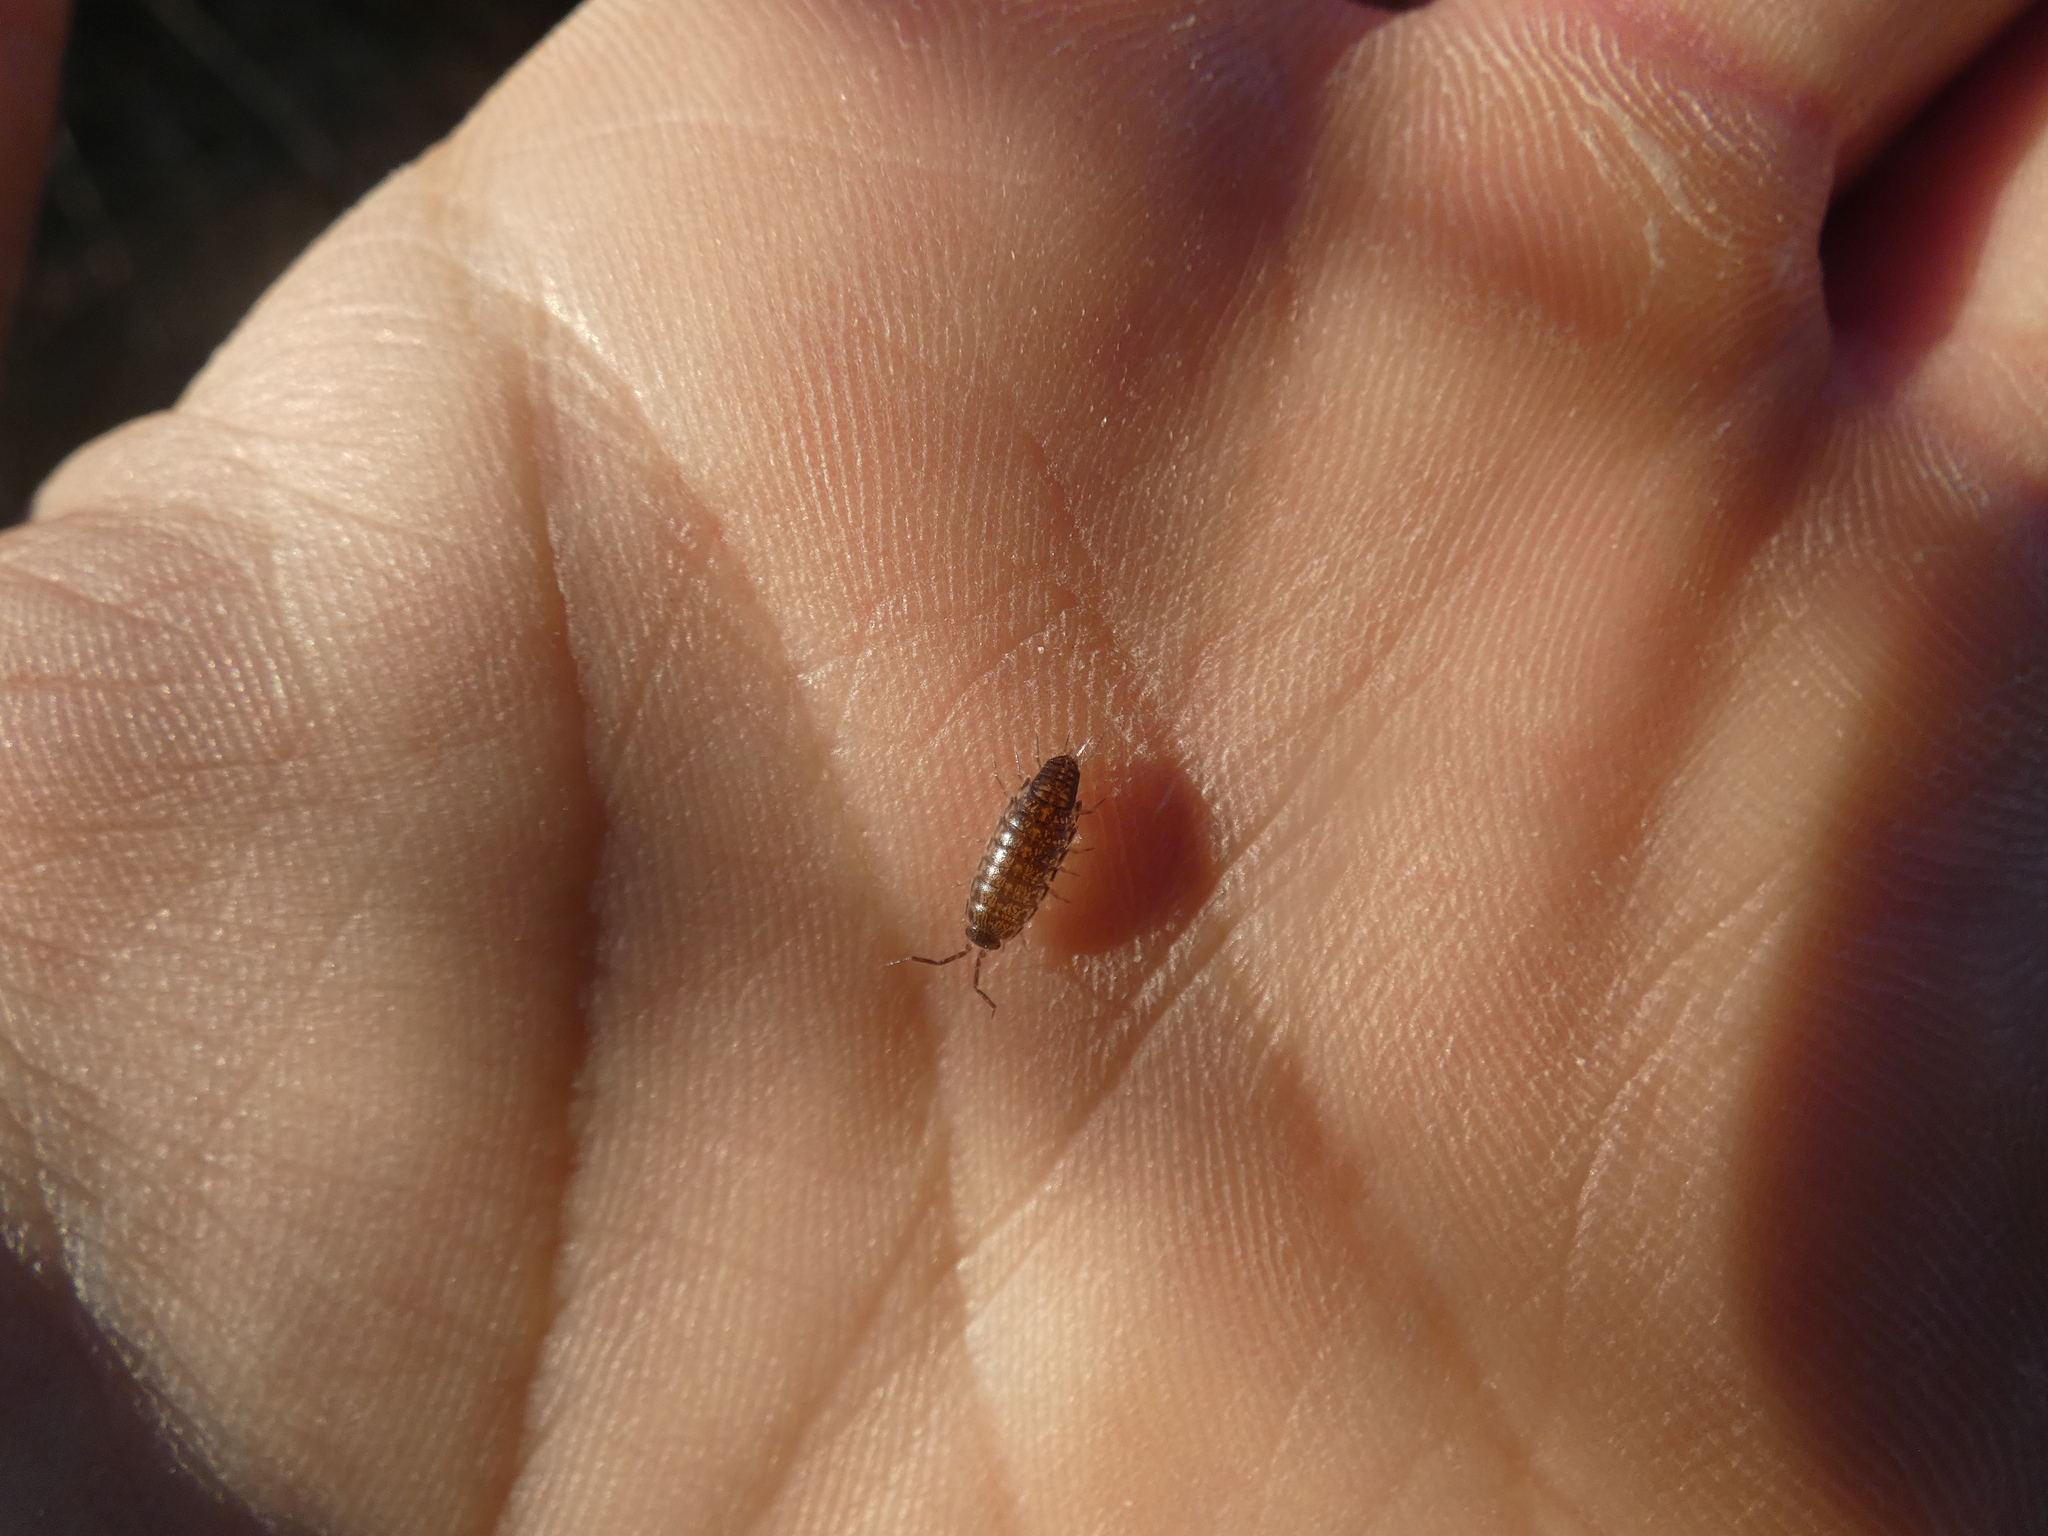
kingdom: Animalia
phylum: Arthropoda
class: Malacostraca
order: Isopoda
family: Philosciidae
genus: Chaetophiloscia
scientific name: Chaetophiloscia elongata
